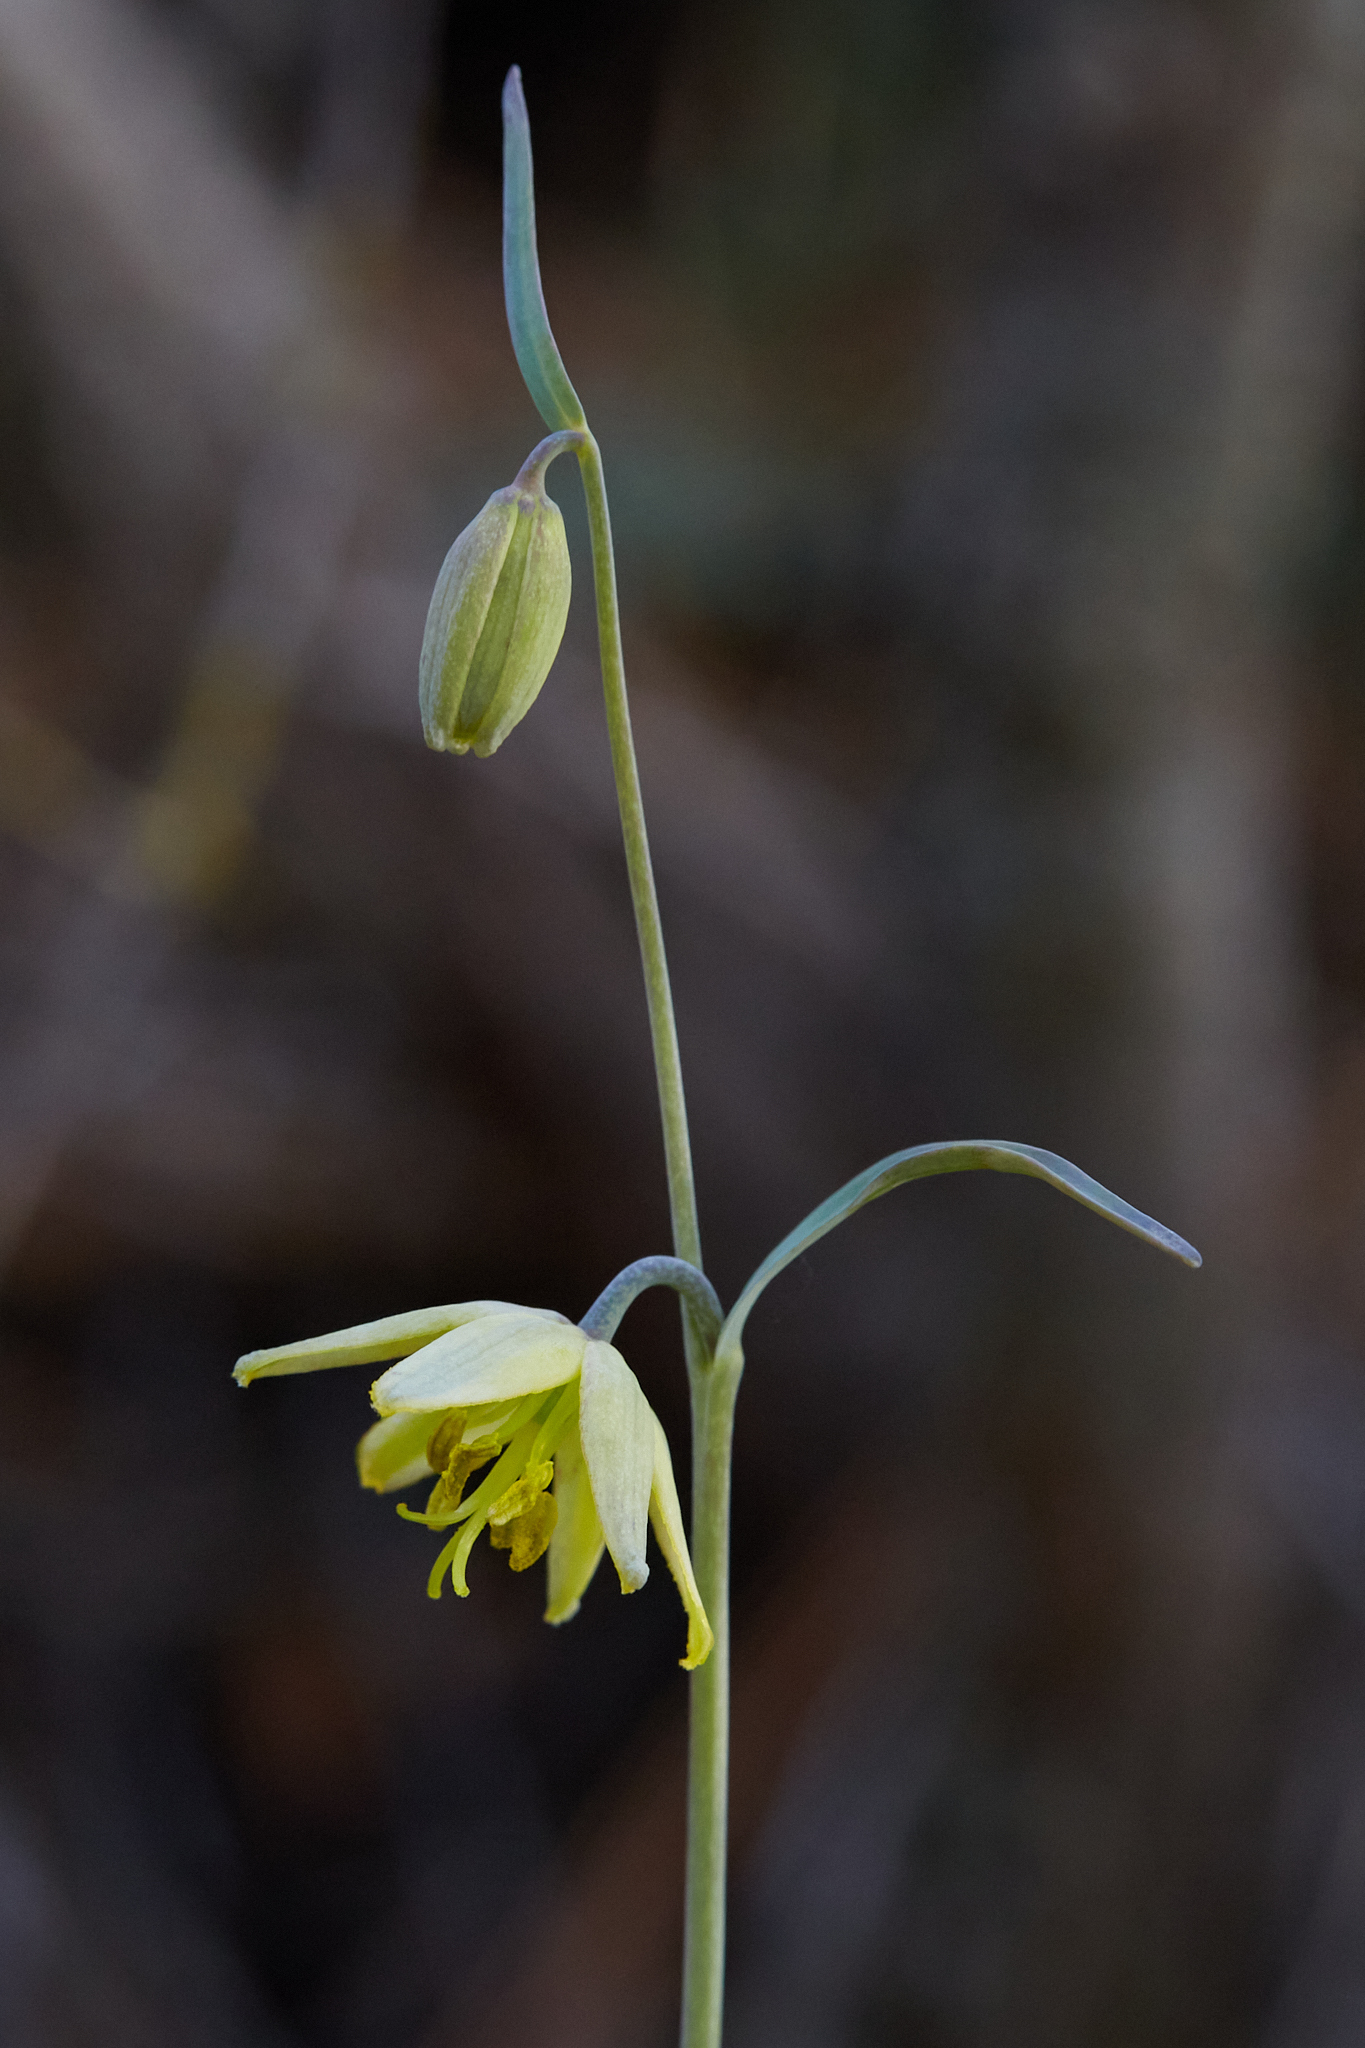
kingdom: Plantae
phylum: Tracheophyta
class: Liliopsida
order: Liliales
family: Liliaceae
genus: Fritillaria
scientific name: Fritillaria viridea
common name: San benito fritillary
